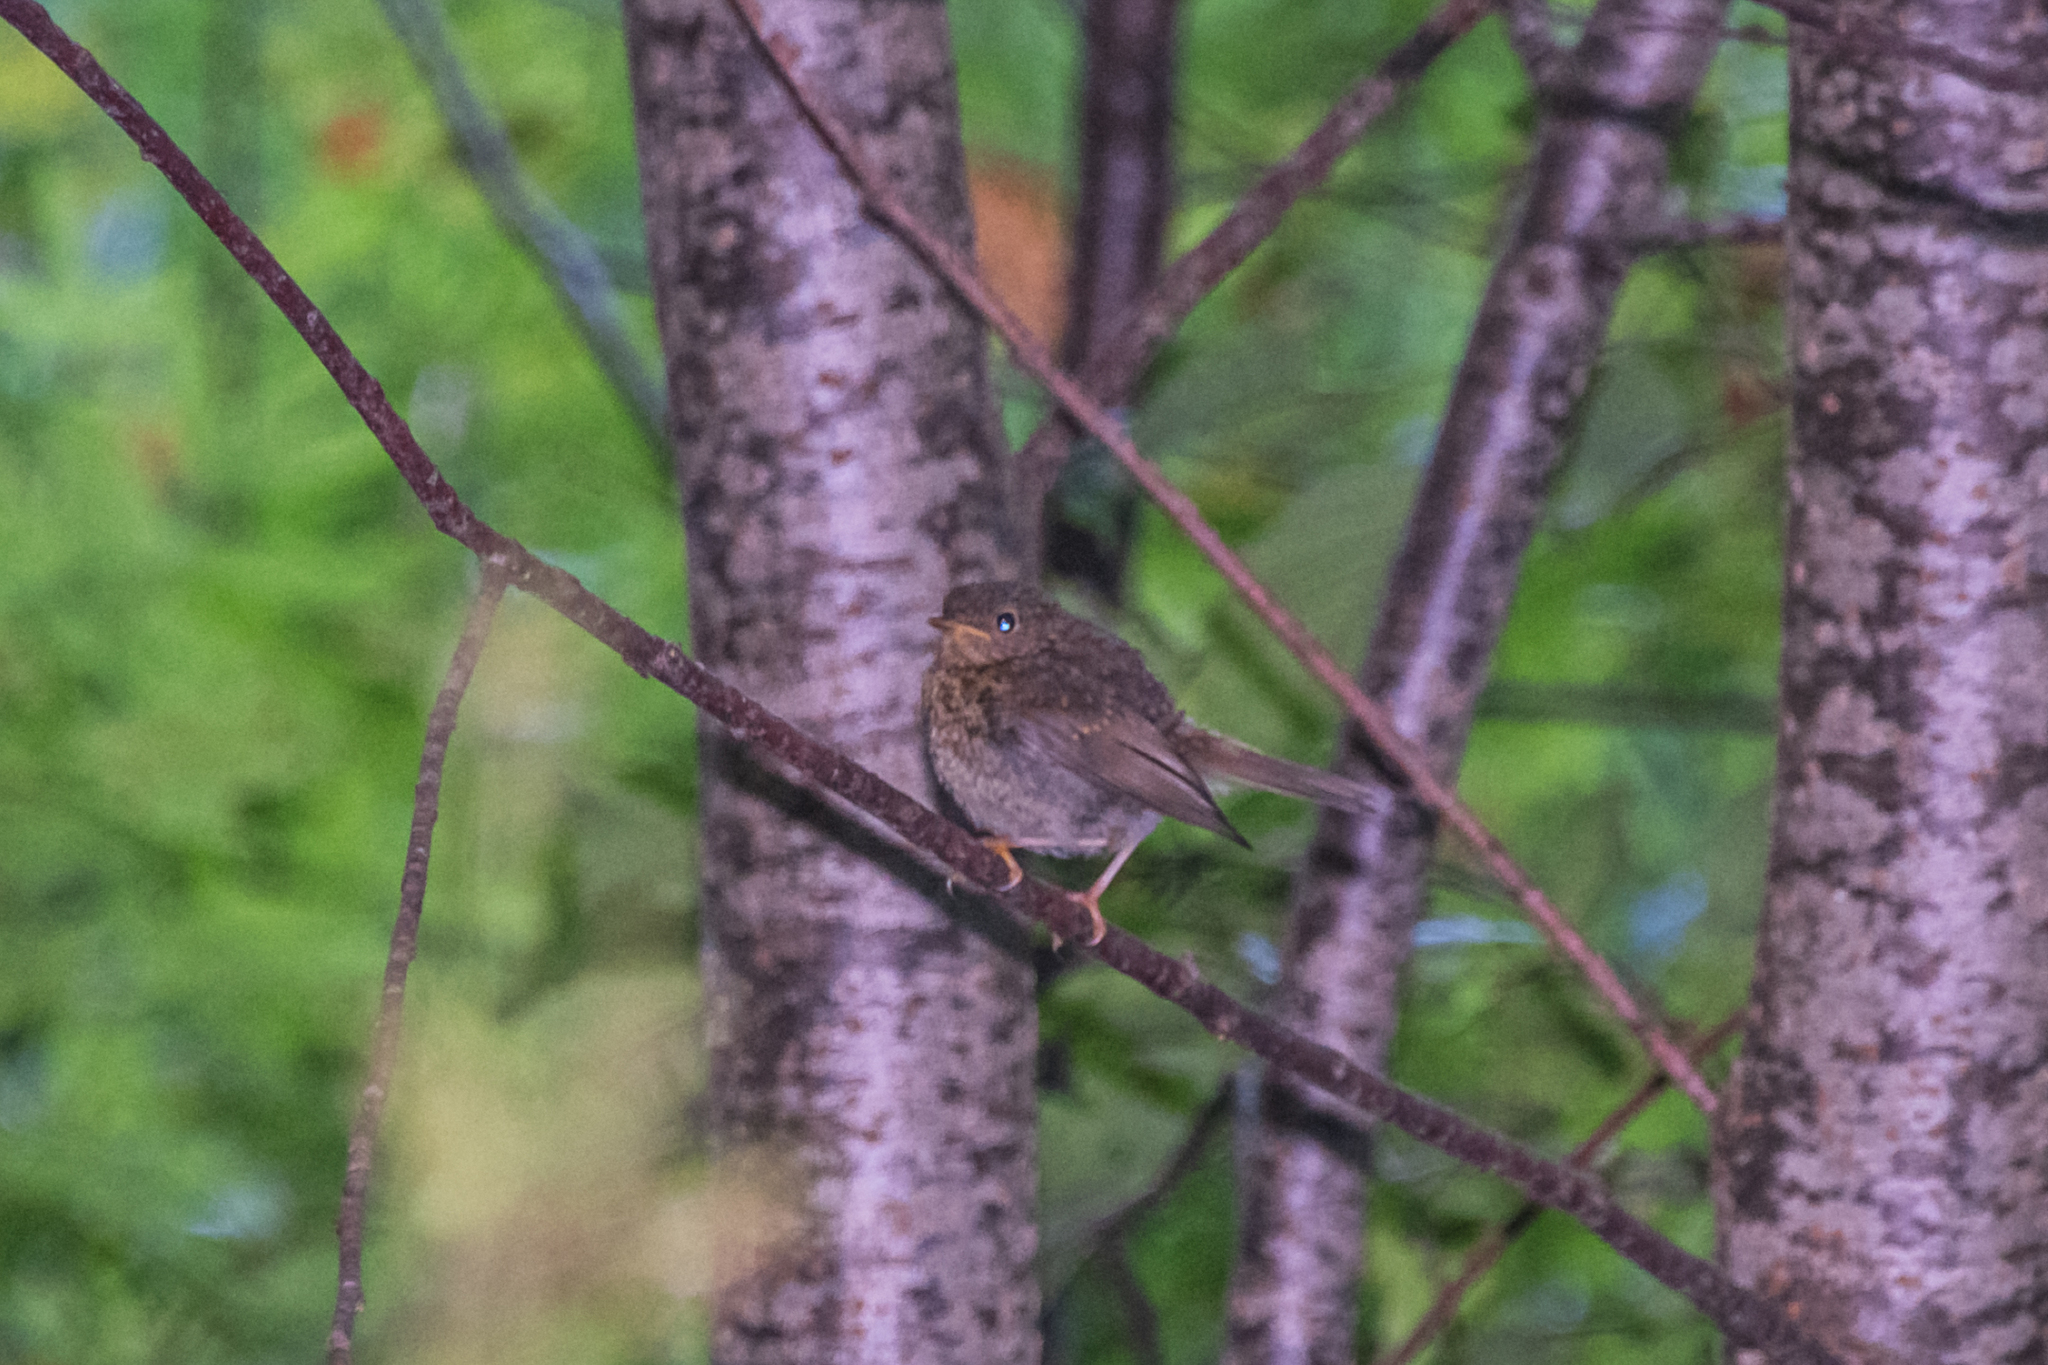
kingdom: Animalia
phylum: Chordata
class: Aves
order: Passeriformes
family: Muscicapidae
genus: Erithacus
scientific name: Erithacus rubecula
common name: European robin
